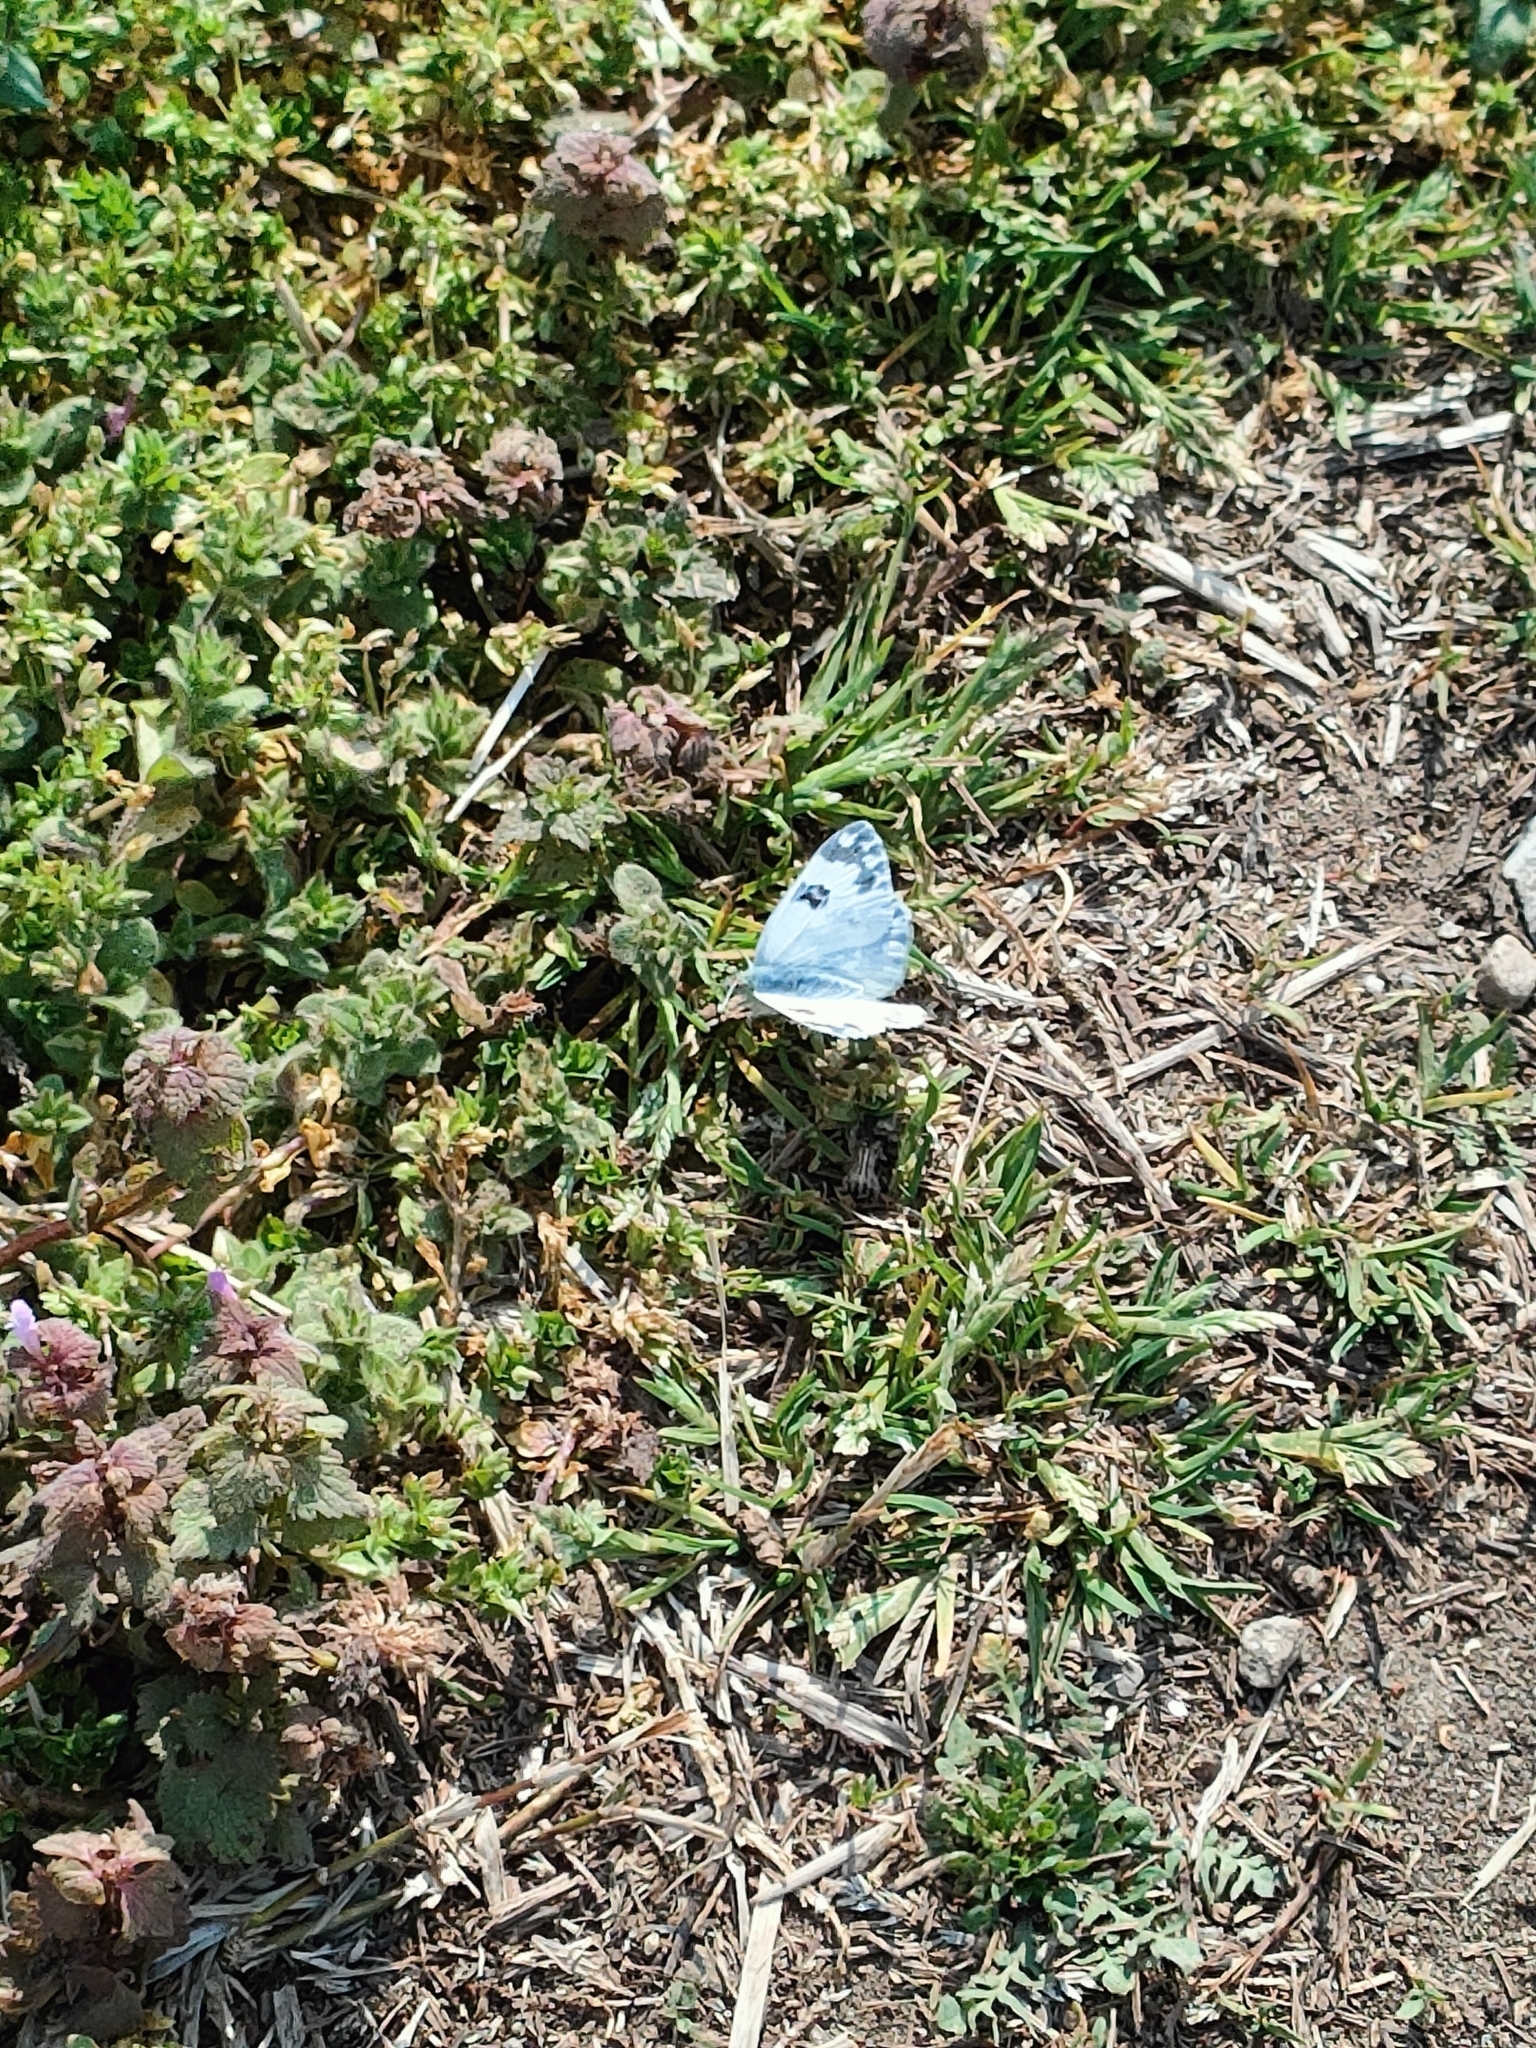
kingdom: Animalia
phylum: Arthropoda
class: Insecta
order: Lepidoptera
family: Pieridae
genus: Pontia
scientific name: Pontia edusa
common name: Eastern bath white
